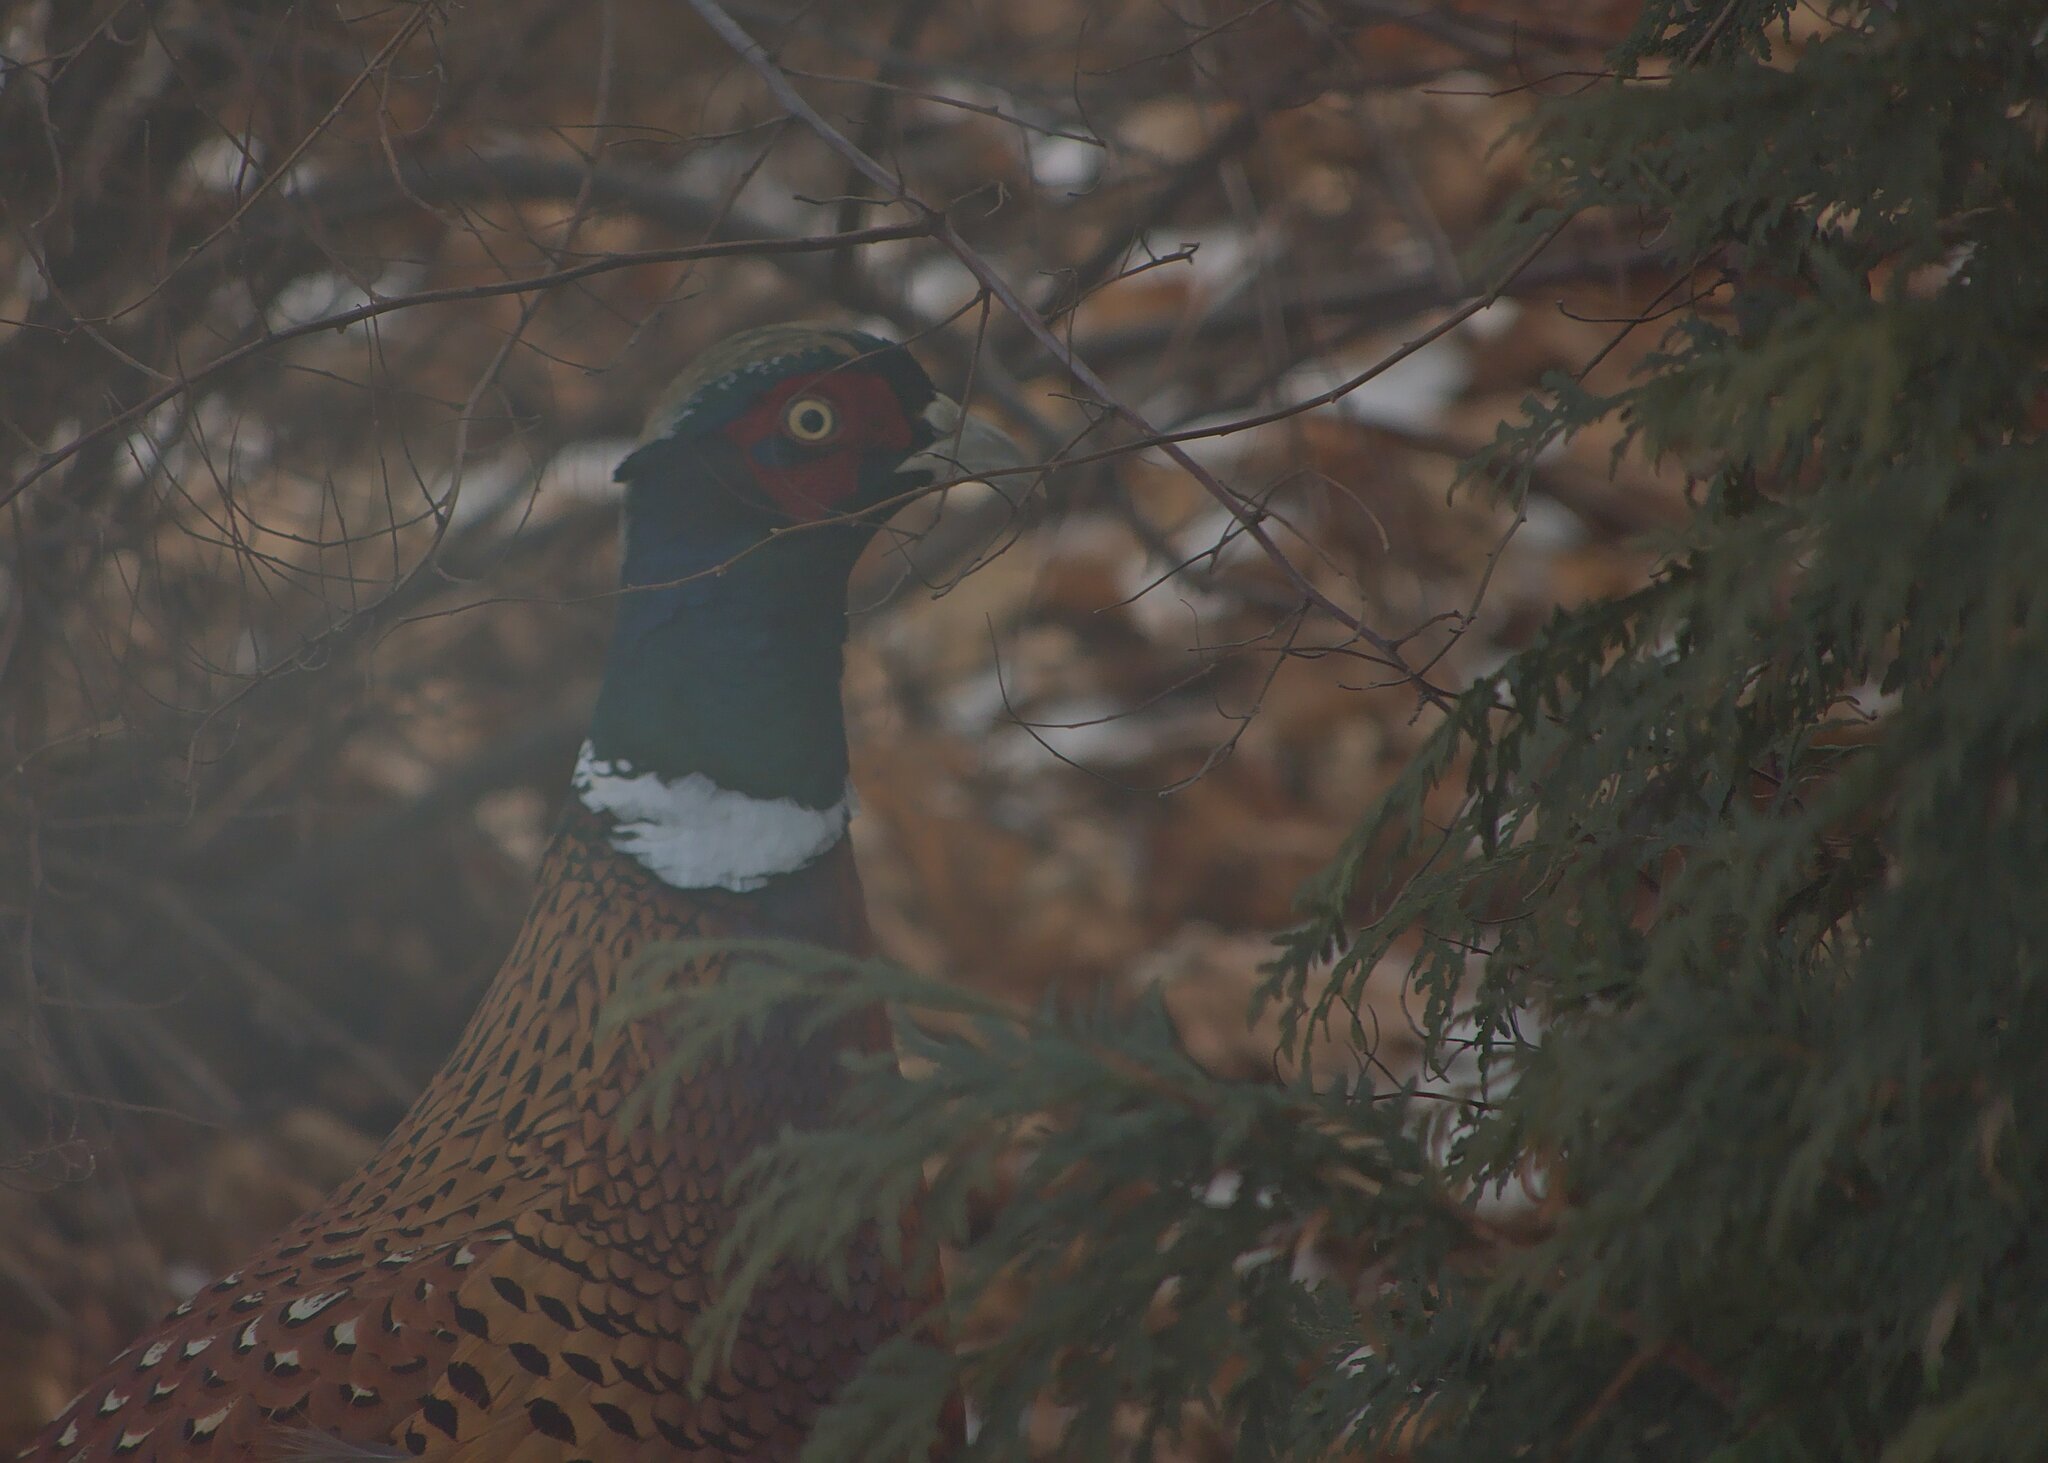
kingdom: Animalia
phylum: Chordata
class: Aves
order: Galliformes
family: Phasianidae
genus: Phasianus
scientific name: Phasianus colchicus
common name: Common pheasant
